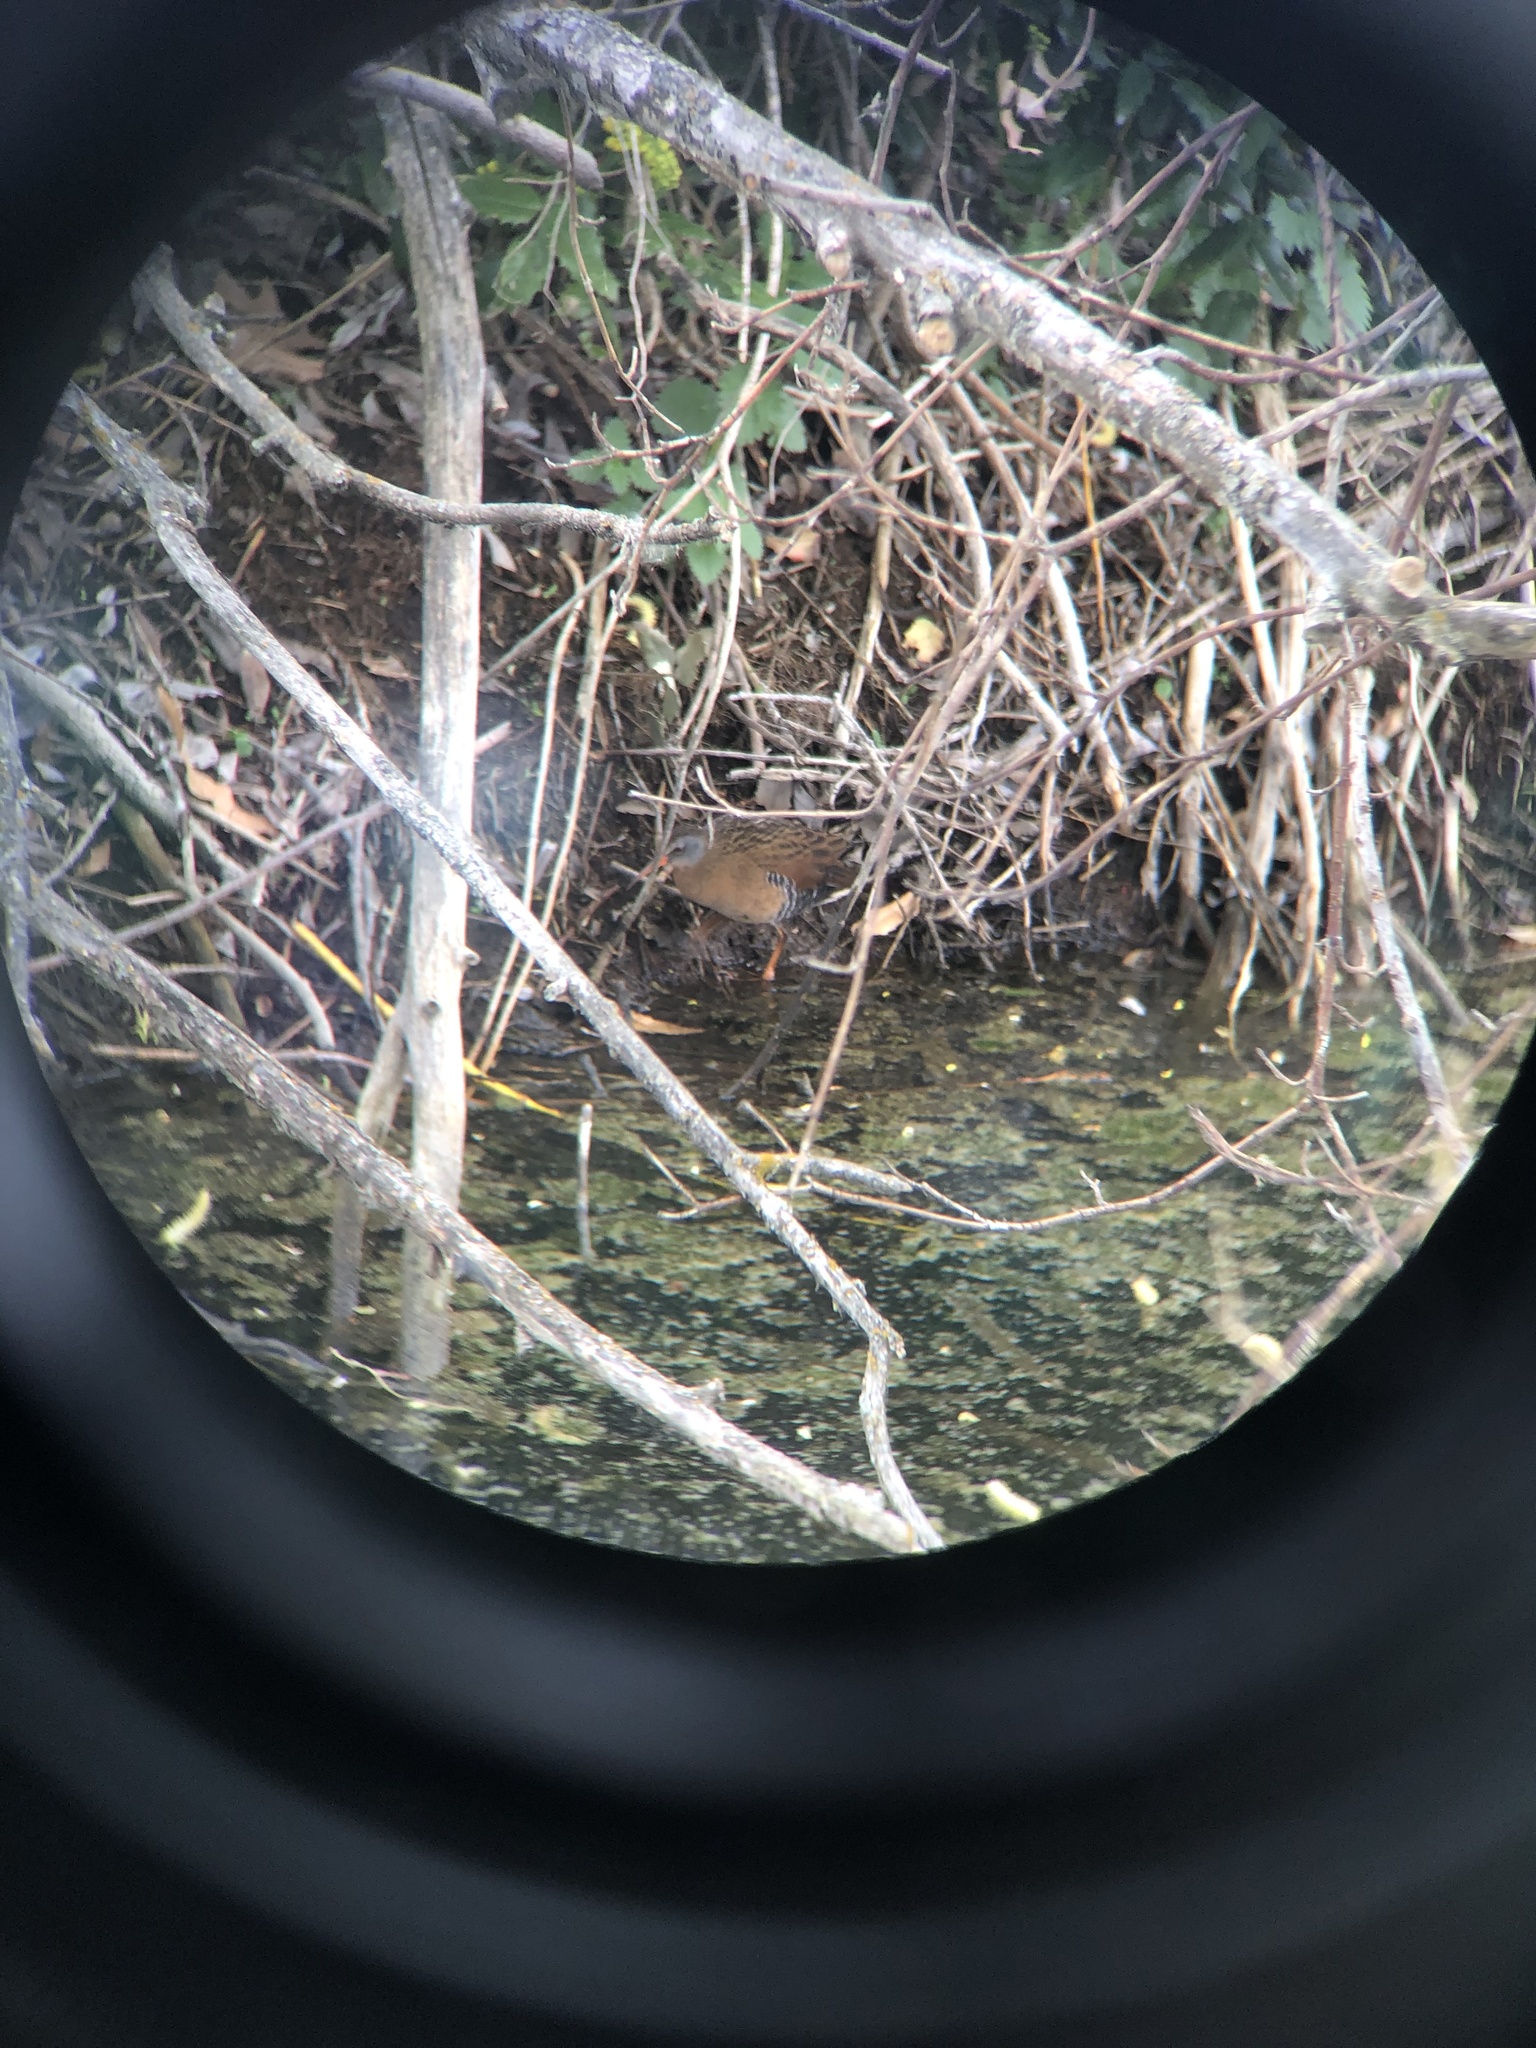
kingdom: Animalia
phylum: Chordata
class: Aves
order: Gruiformes
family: Rallidae
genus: Rallus
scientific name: Rallus limicola
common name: Virginia rail
